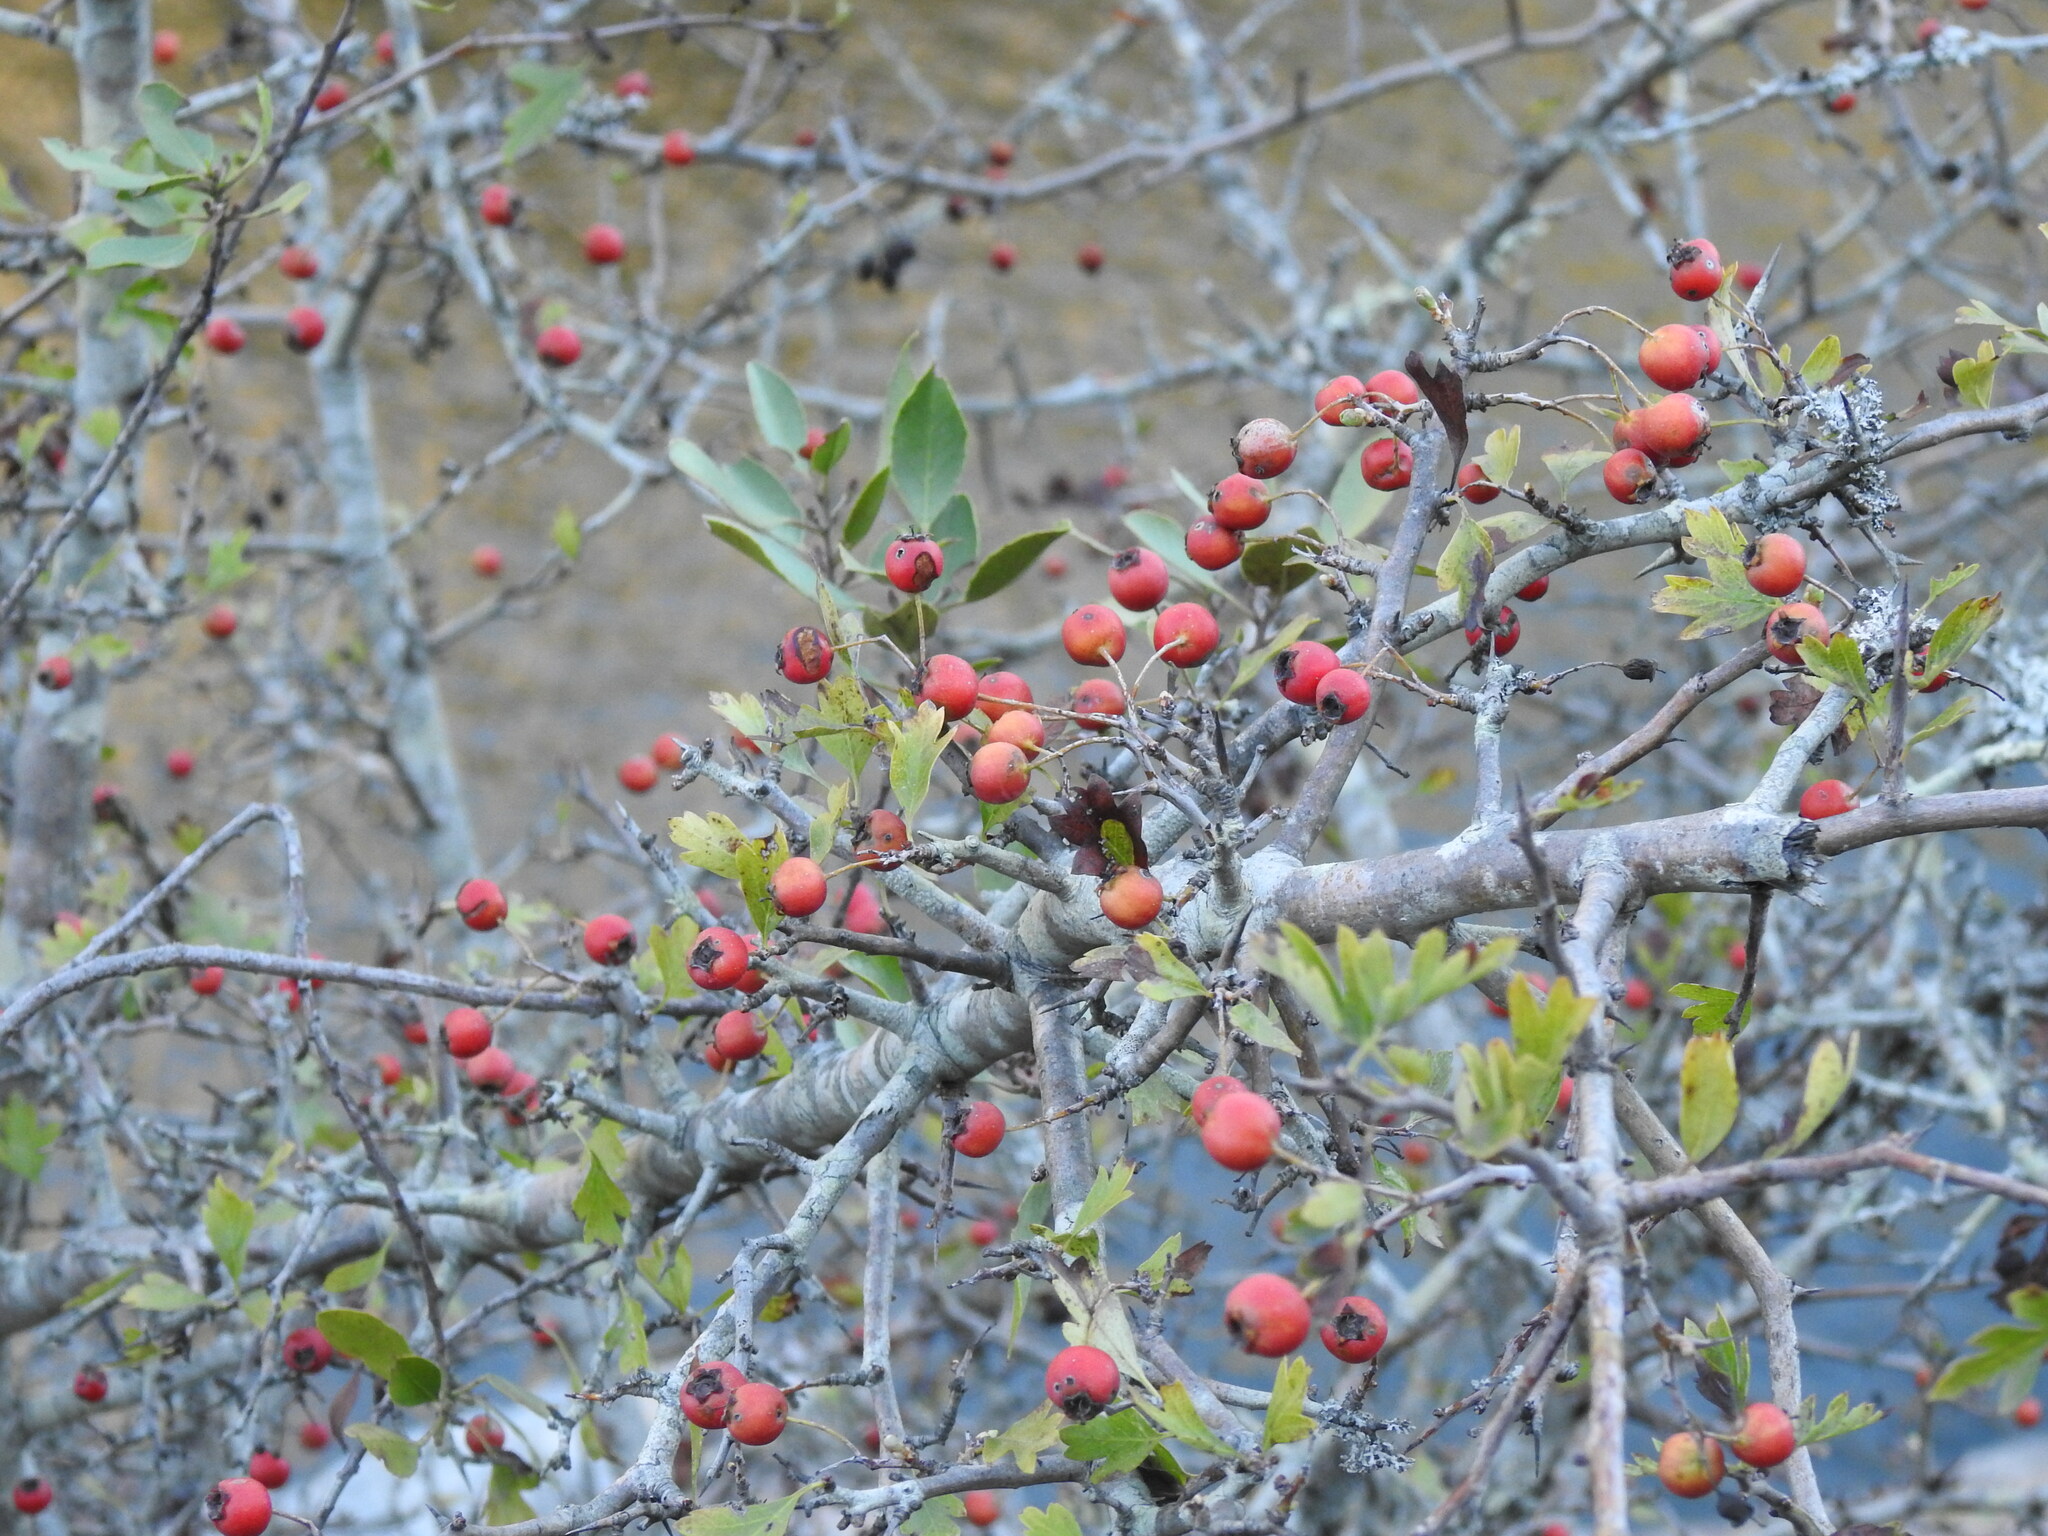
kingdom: Plantae
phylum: Tracheophyta
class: Magnoliopsida
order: Rosales
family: Rosaceae
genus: Crataegus
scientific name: Crataegus monogyna
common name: Hawthorn
